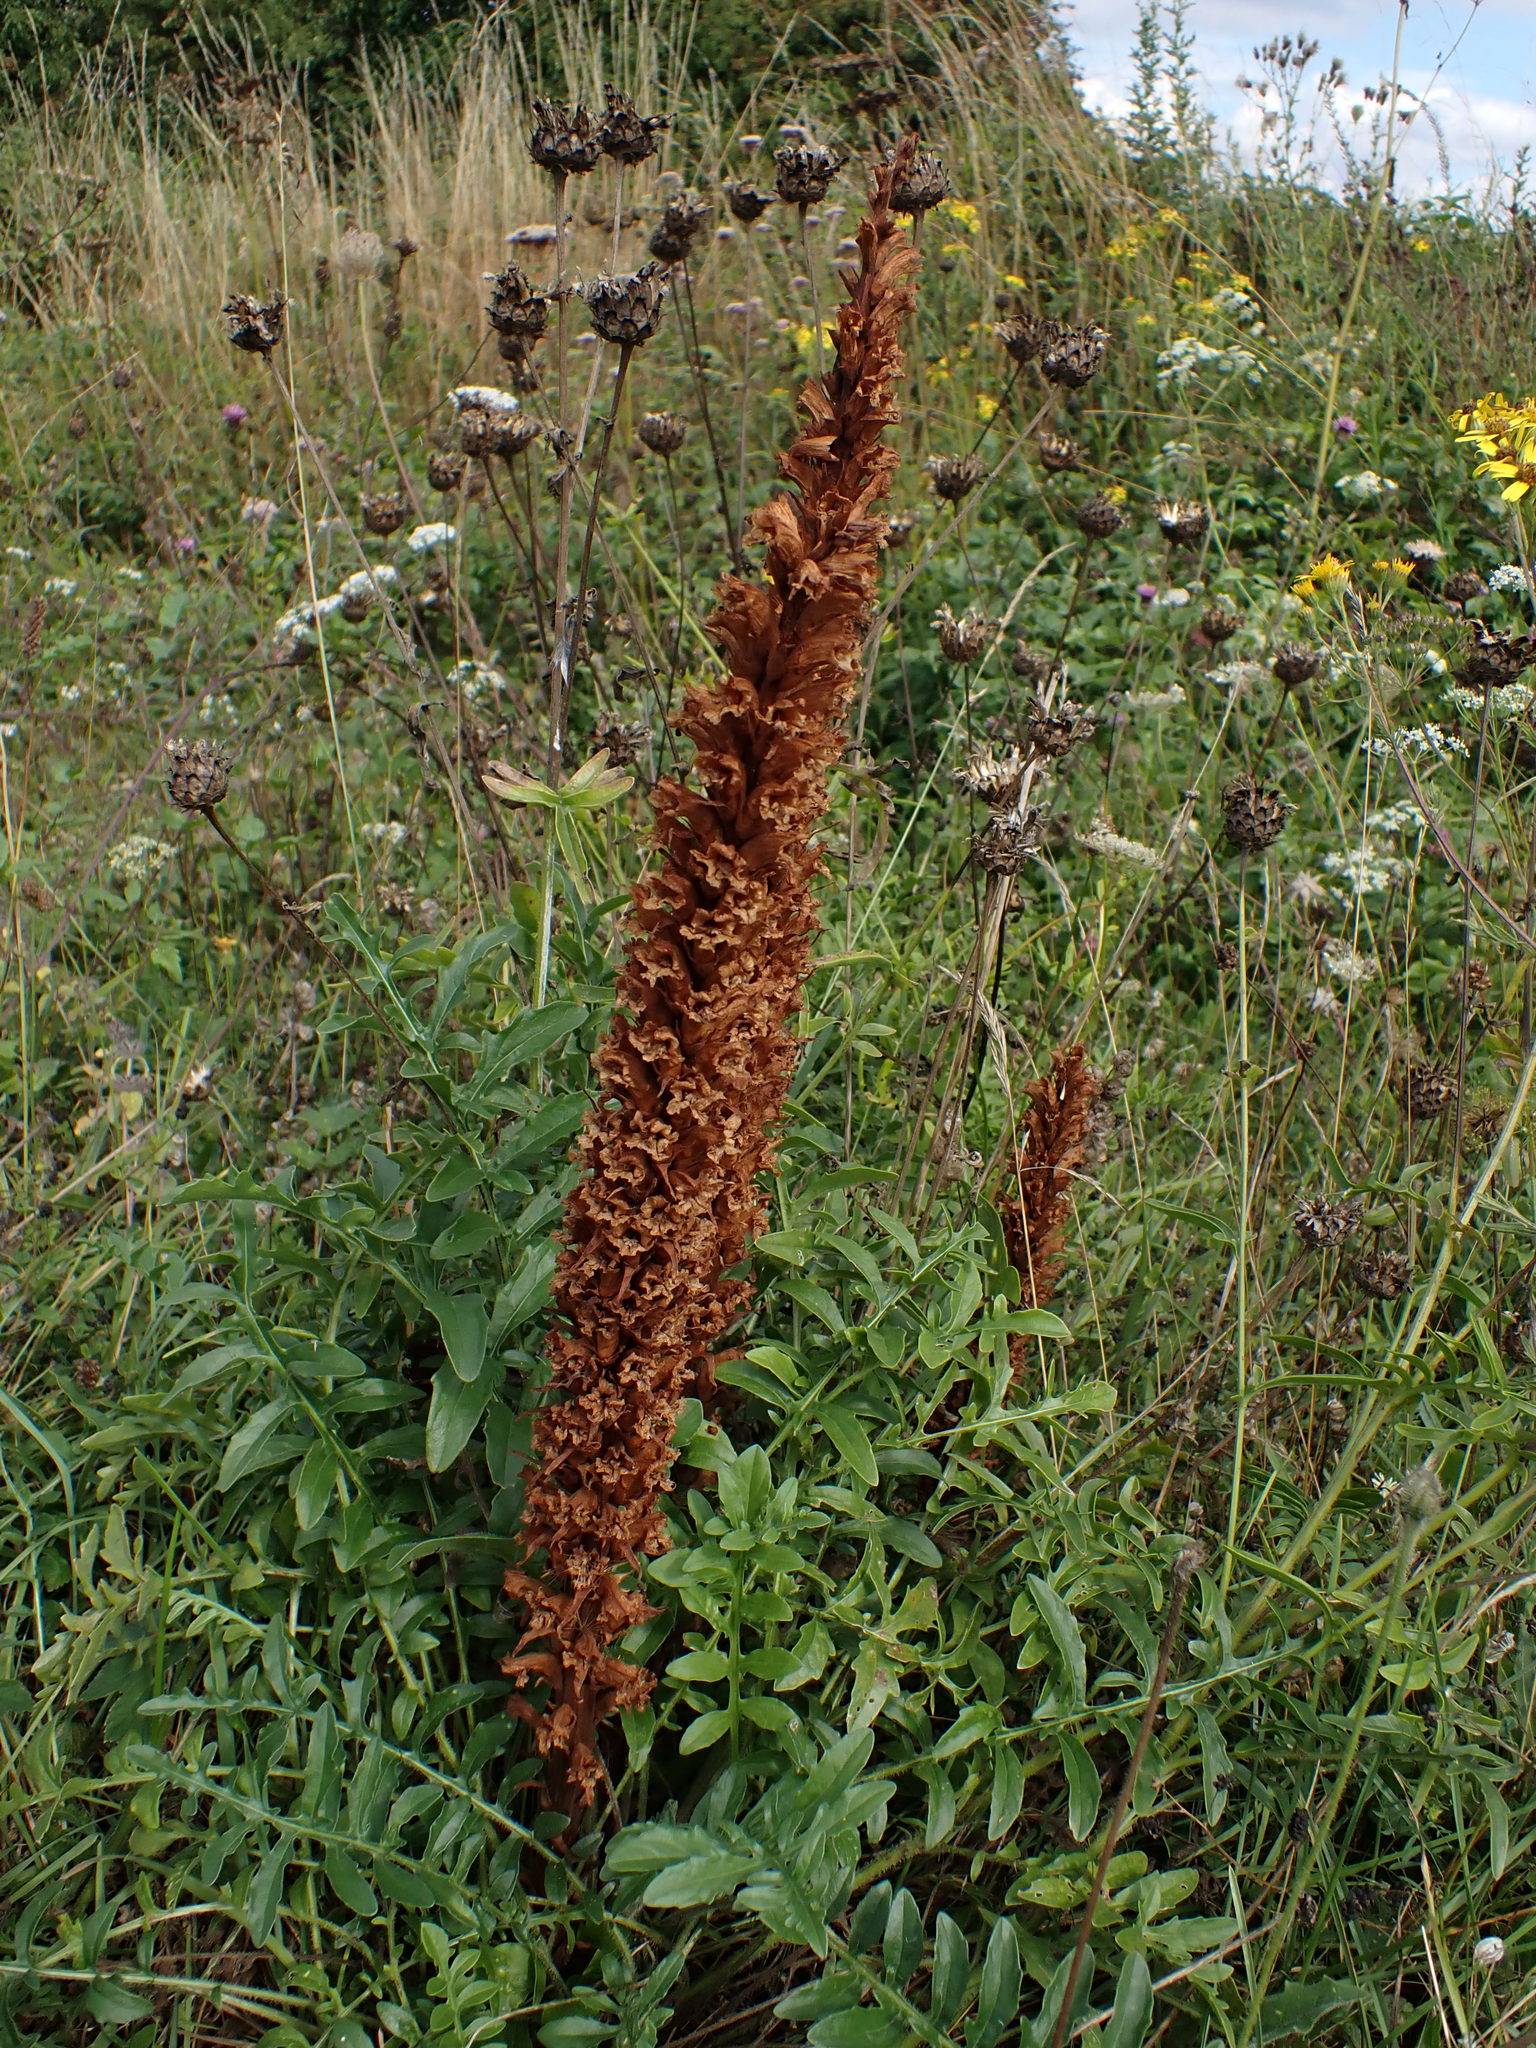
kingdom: Plantae
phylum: Tracheophyta
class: Magnoliopsida
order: Lamiales
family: Orobanchaceae
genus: Orobanche
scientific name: Orobanche elatior
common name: Knapweed broomrape
